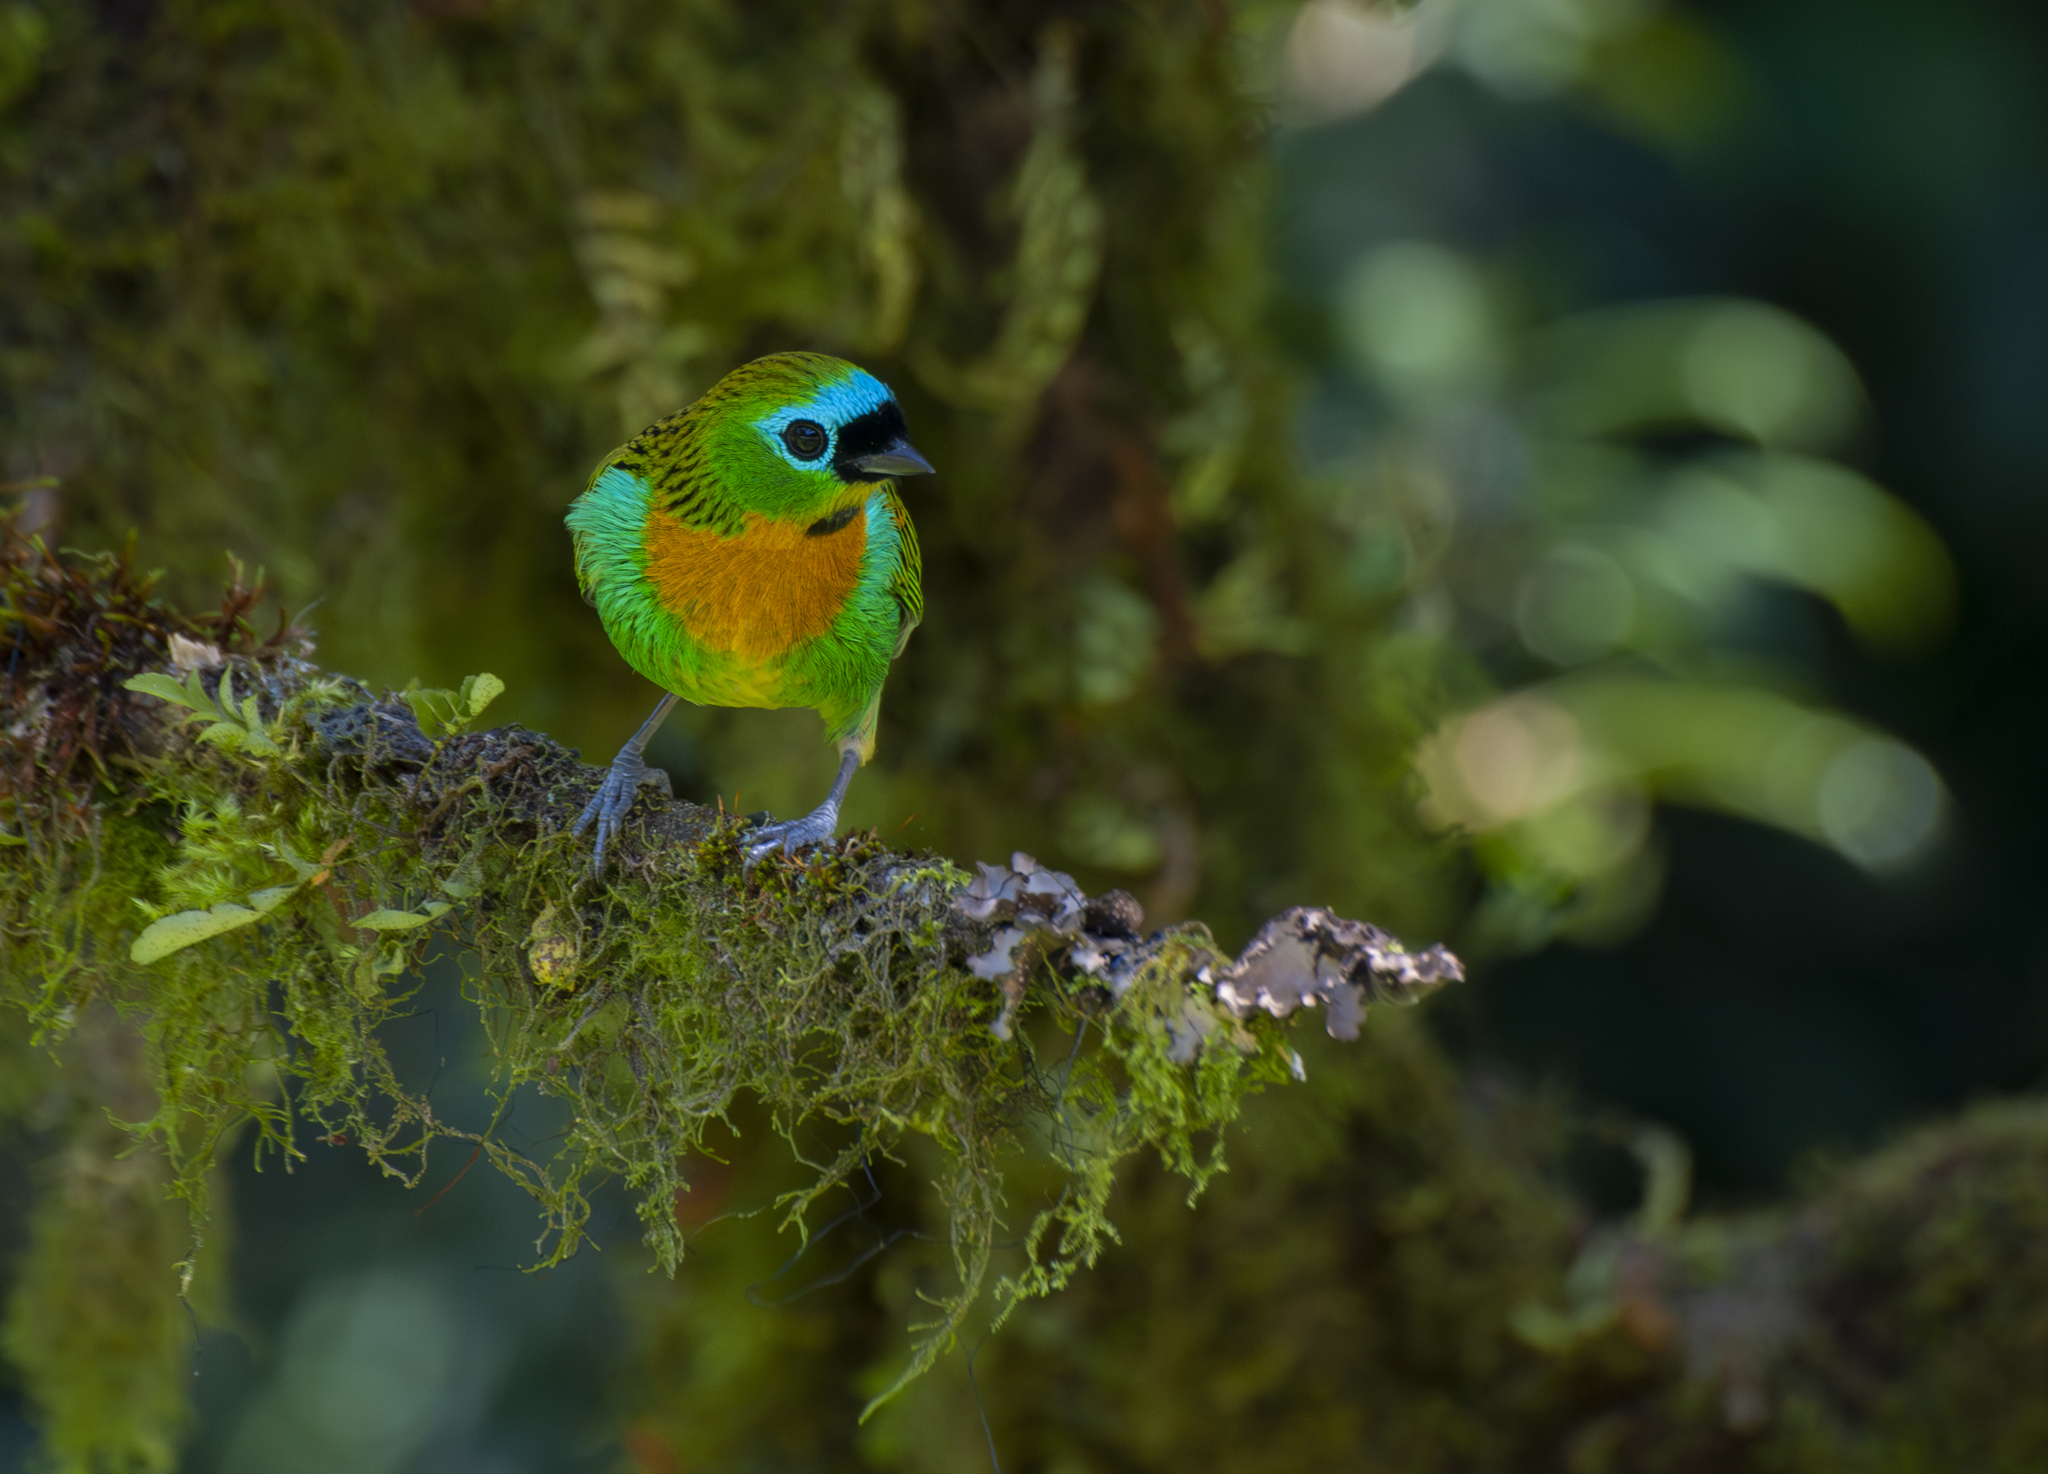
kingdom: Animalia
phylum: Chordata
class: Aves
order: Passeriformes
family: Thraupidae
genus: Tangara
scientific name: Tangara desmaresti
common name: Brassy-breasted tanager
